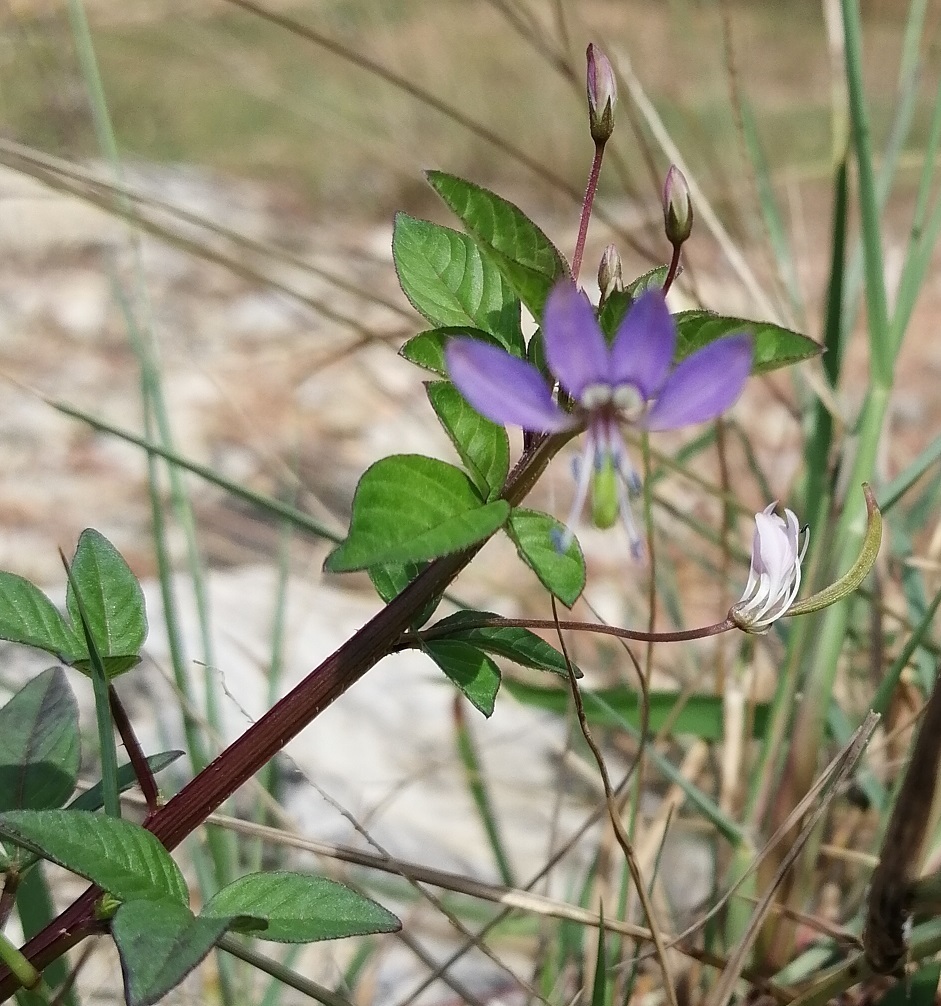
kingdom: Plantae
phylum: Tracheophyta
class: Magnoliopsida
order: Brassicales
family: Cleomaceae
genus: Sieruela
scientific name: Sieruela rutidosperma
